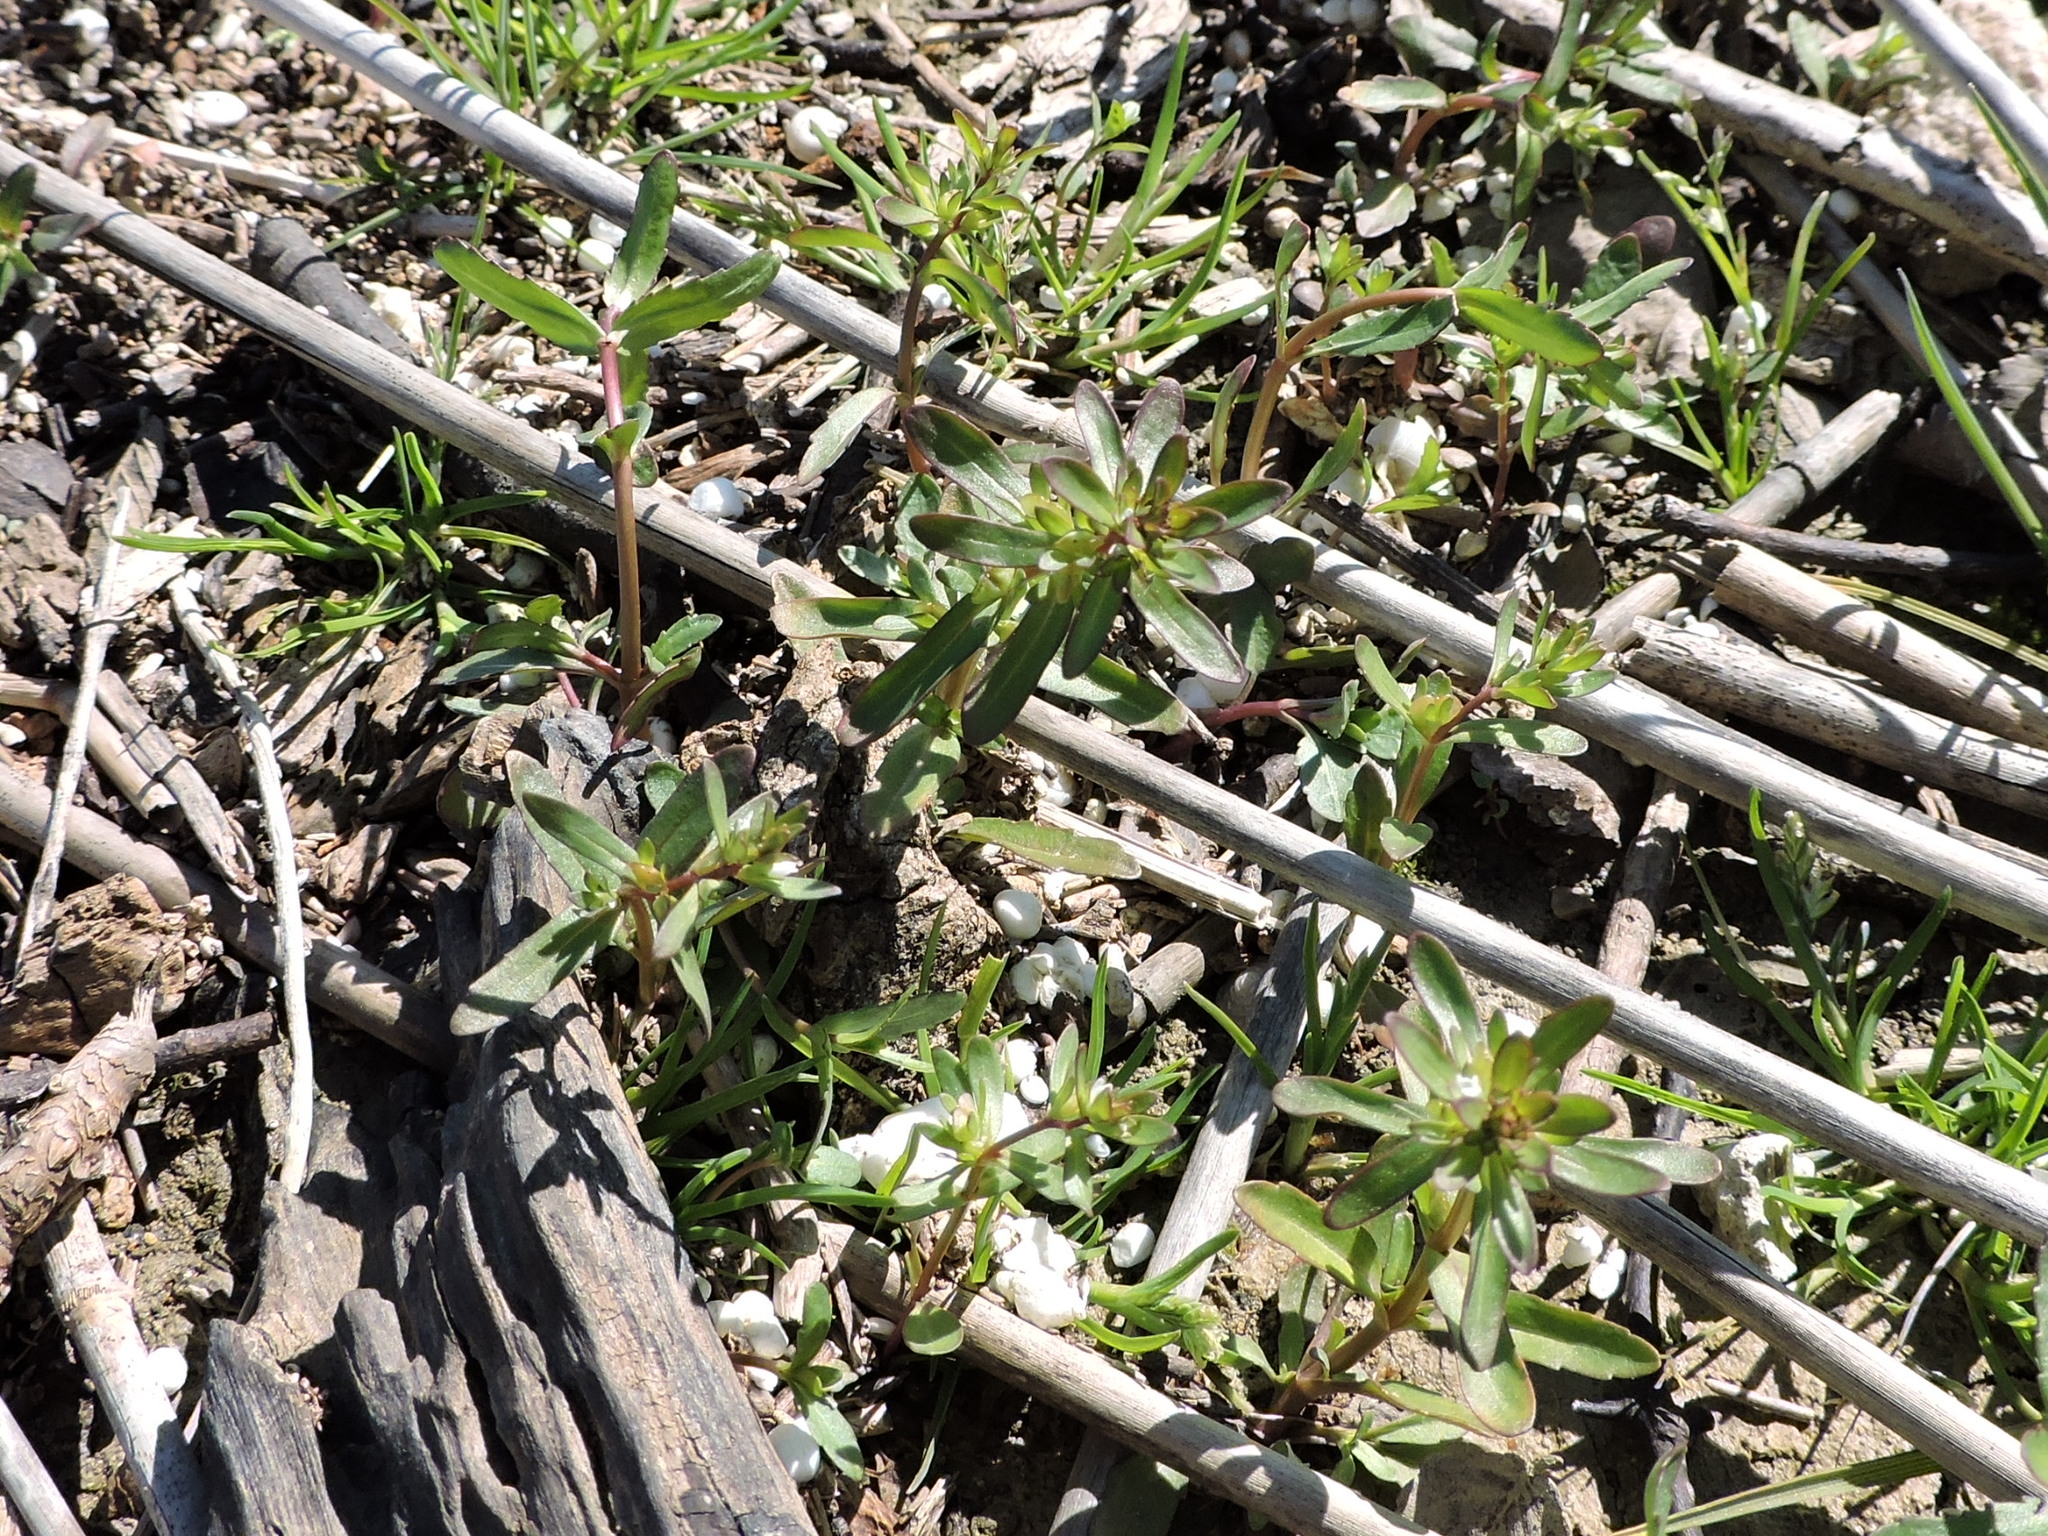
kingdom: Plantae
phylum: Tracheophyta
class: Magnoliopsida
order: Lamiales
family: Plantaginaceae
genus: Veronica
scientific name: Veronica peregrina
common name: Neckweed
